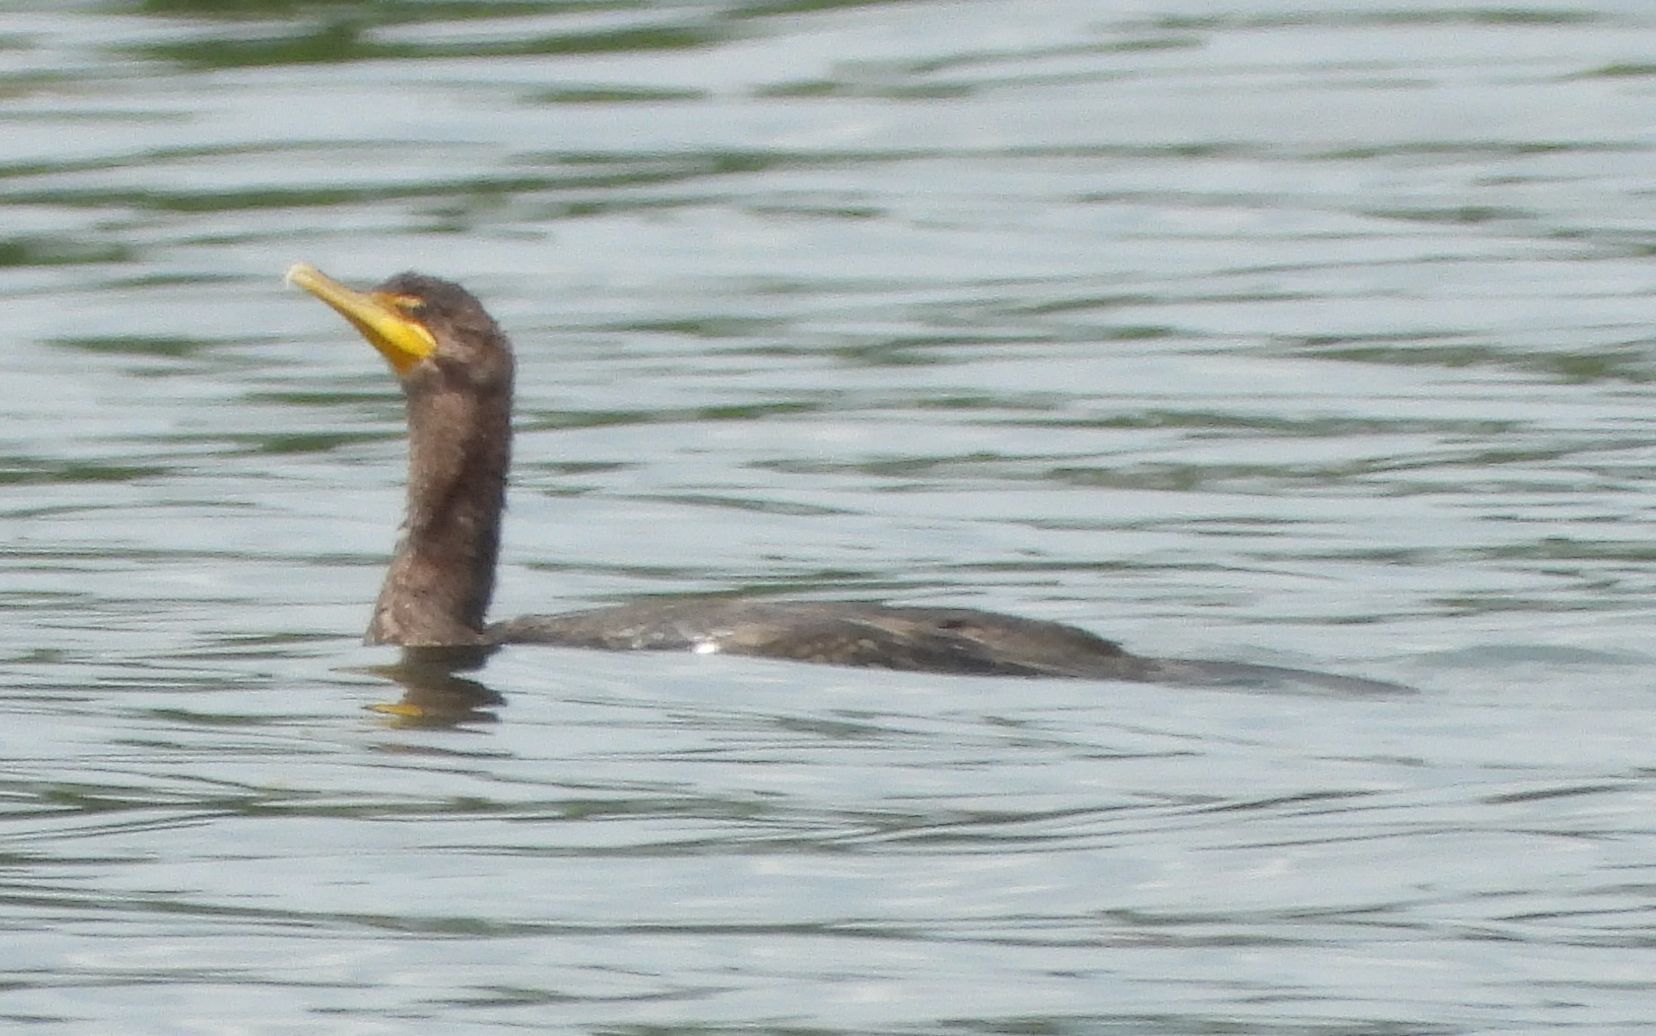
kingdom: Animalia
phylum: Chordata
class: Aves
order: Suliformes
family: Phalacrocoracidae
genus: Phalacrocorax
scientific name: Phalacrocorax auritus
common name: Double-crested cormorant
